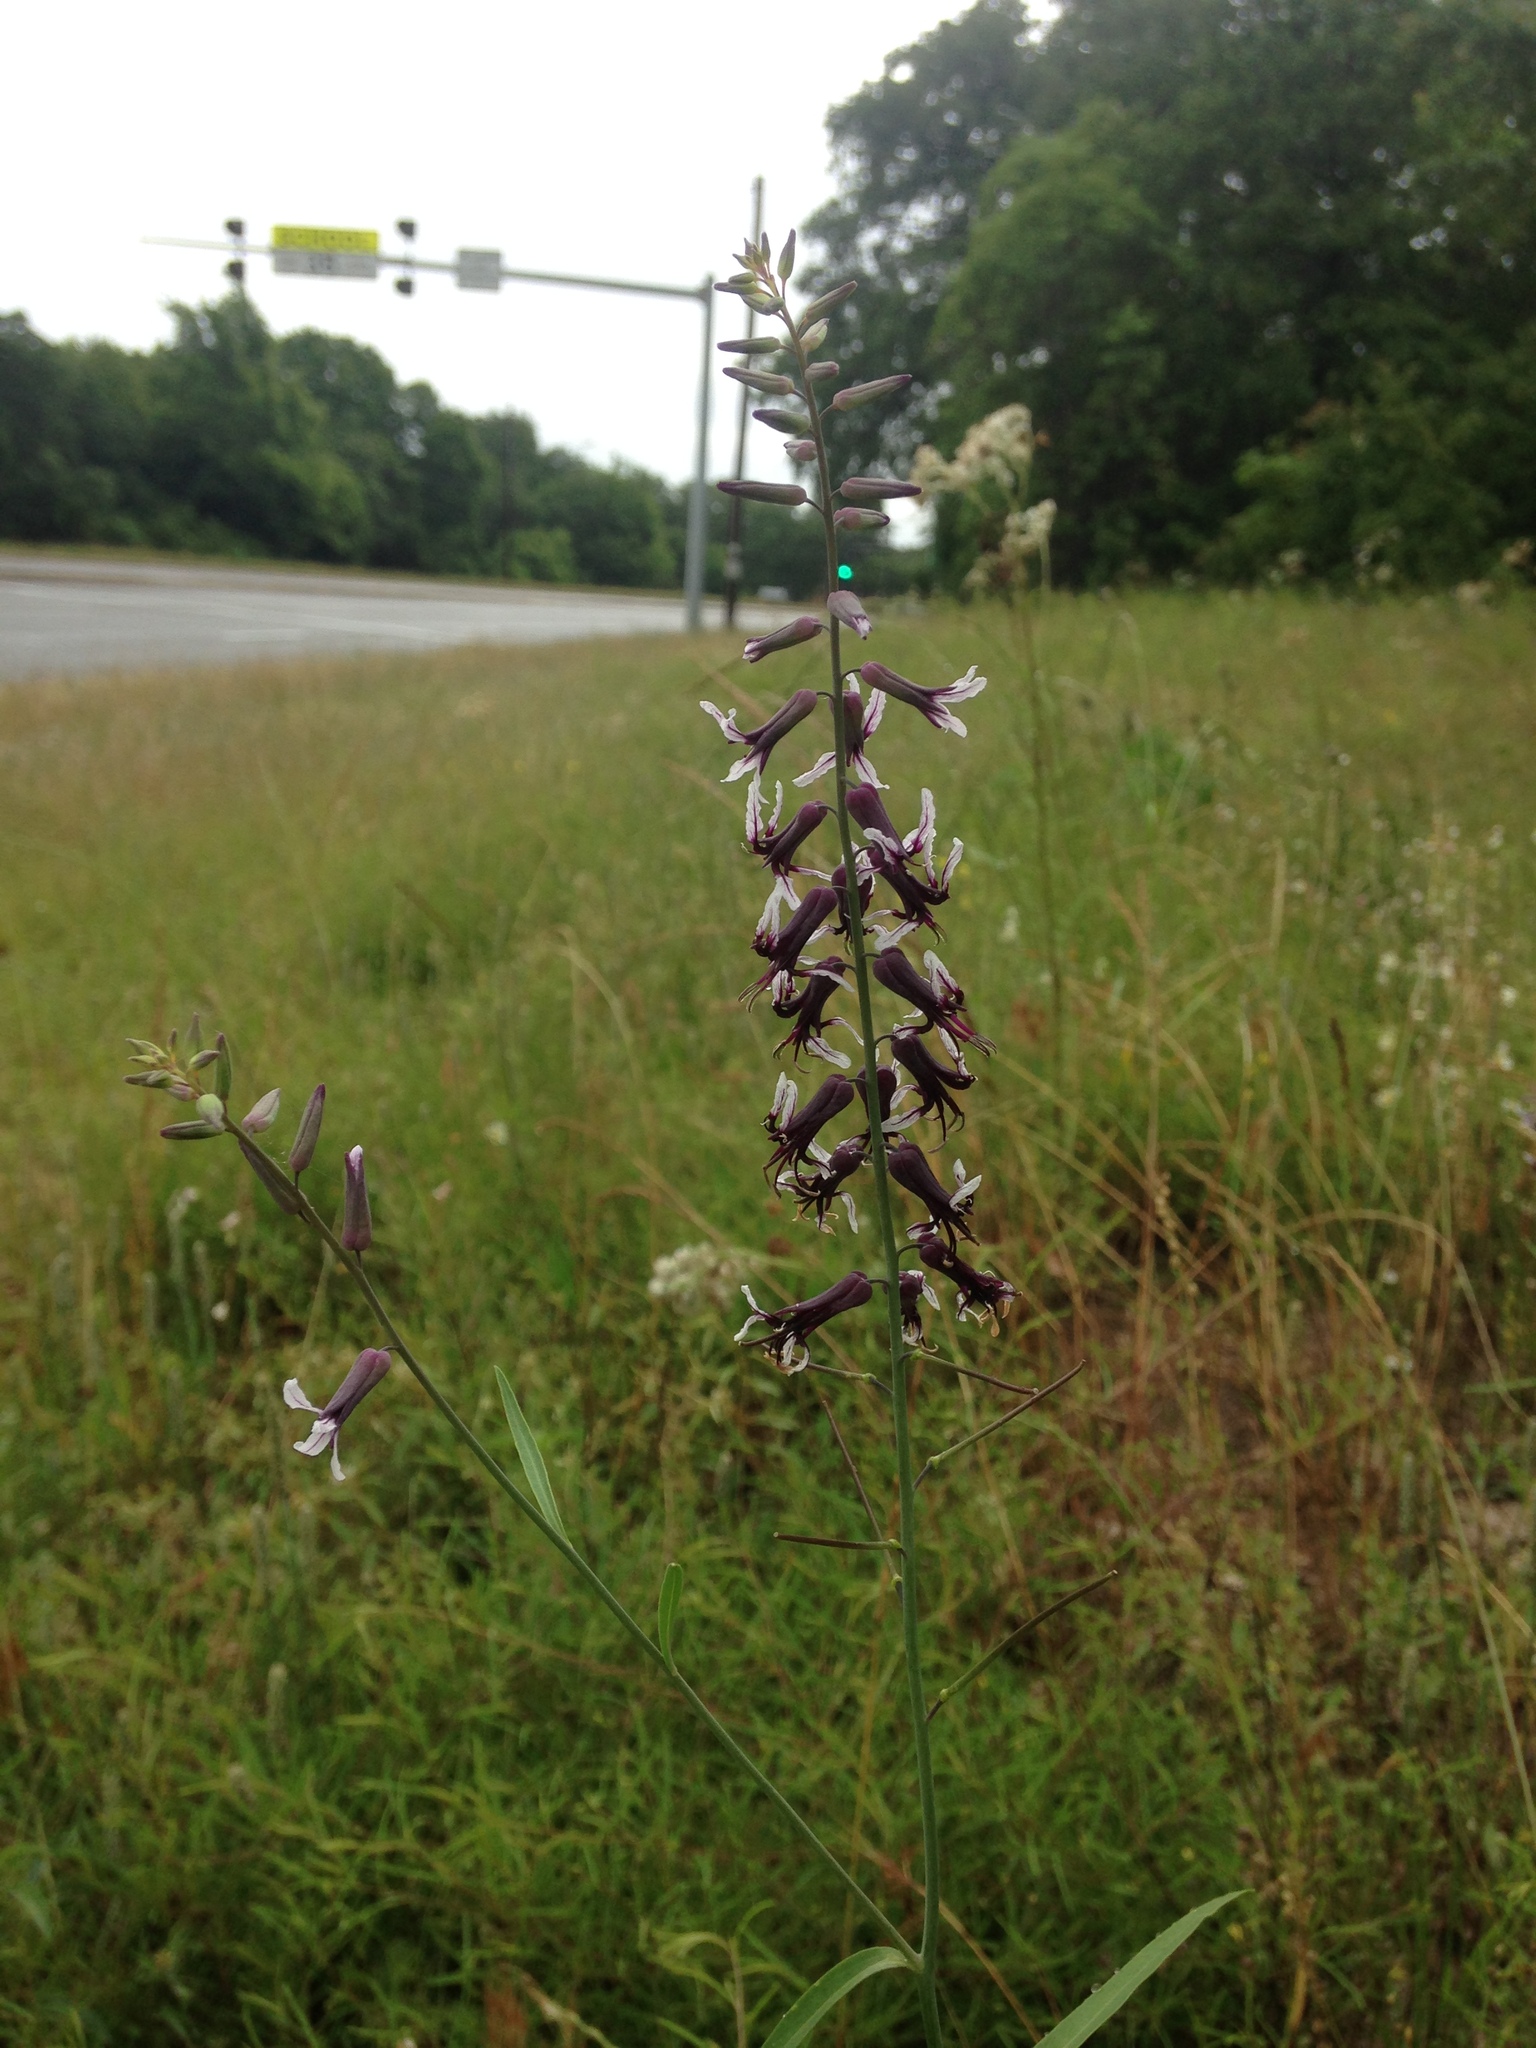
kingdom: Plantae
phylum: Tracheophyta
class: Magnoliopsida
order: Brassicales
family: Brassicaceae
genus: Streptanthus
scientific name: Streptanthus hyacinthoides
